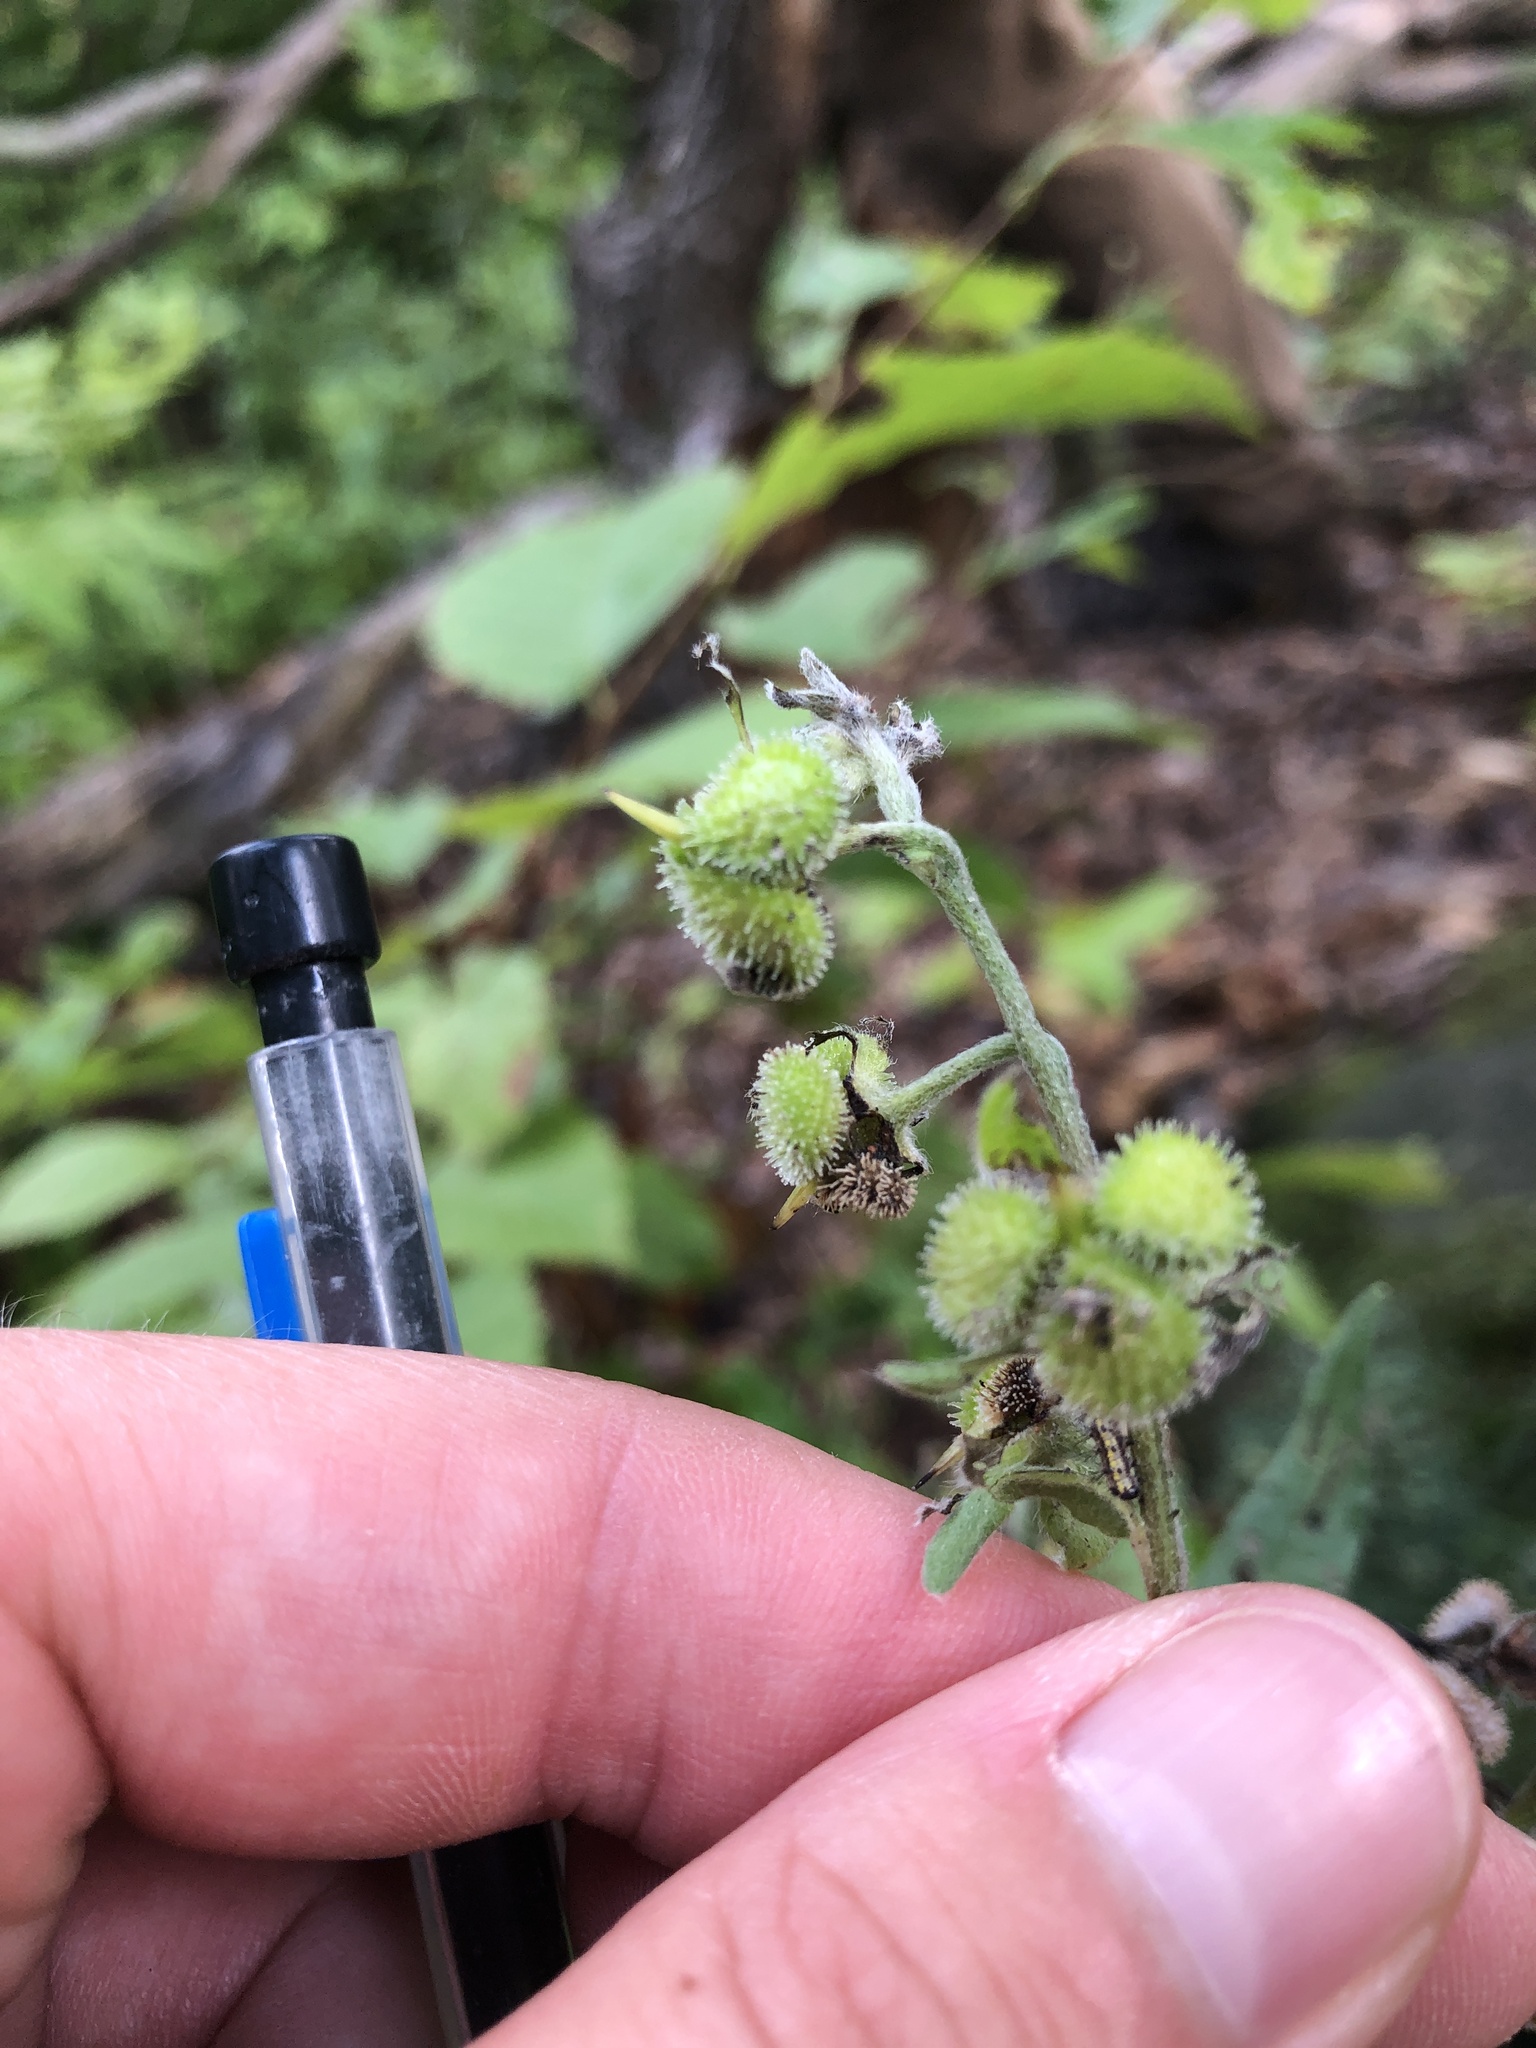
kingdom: Plantae
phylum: Tracheophyta
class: Magnoliopsida
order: Boraginales
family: Boraginaceae
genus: Cynoglossum
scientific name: Cynoglossum officinale
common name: Hound's-tongue
